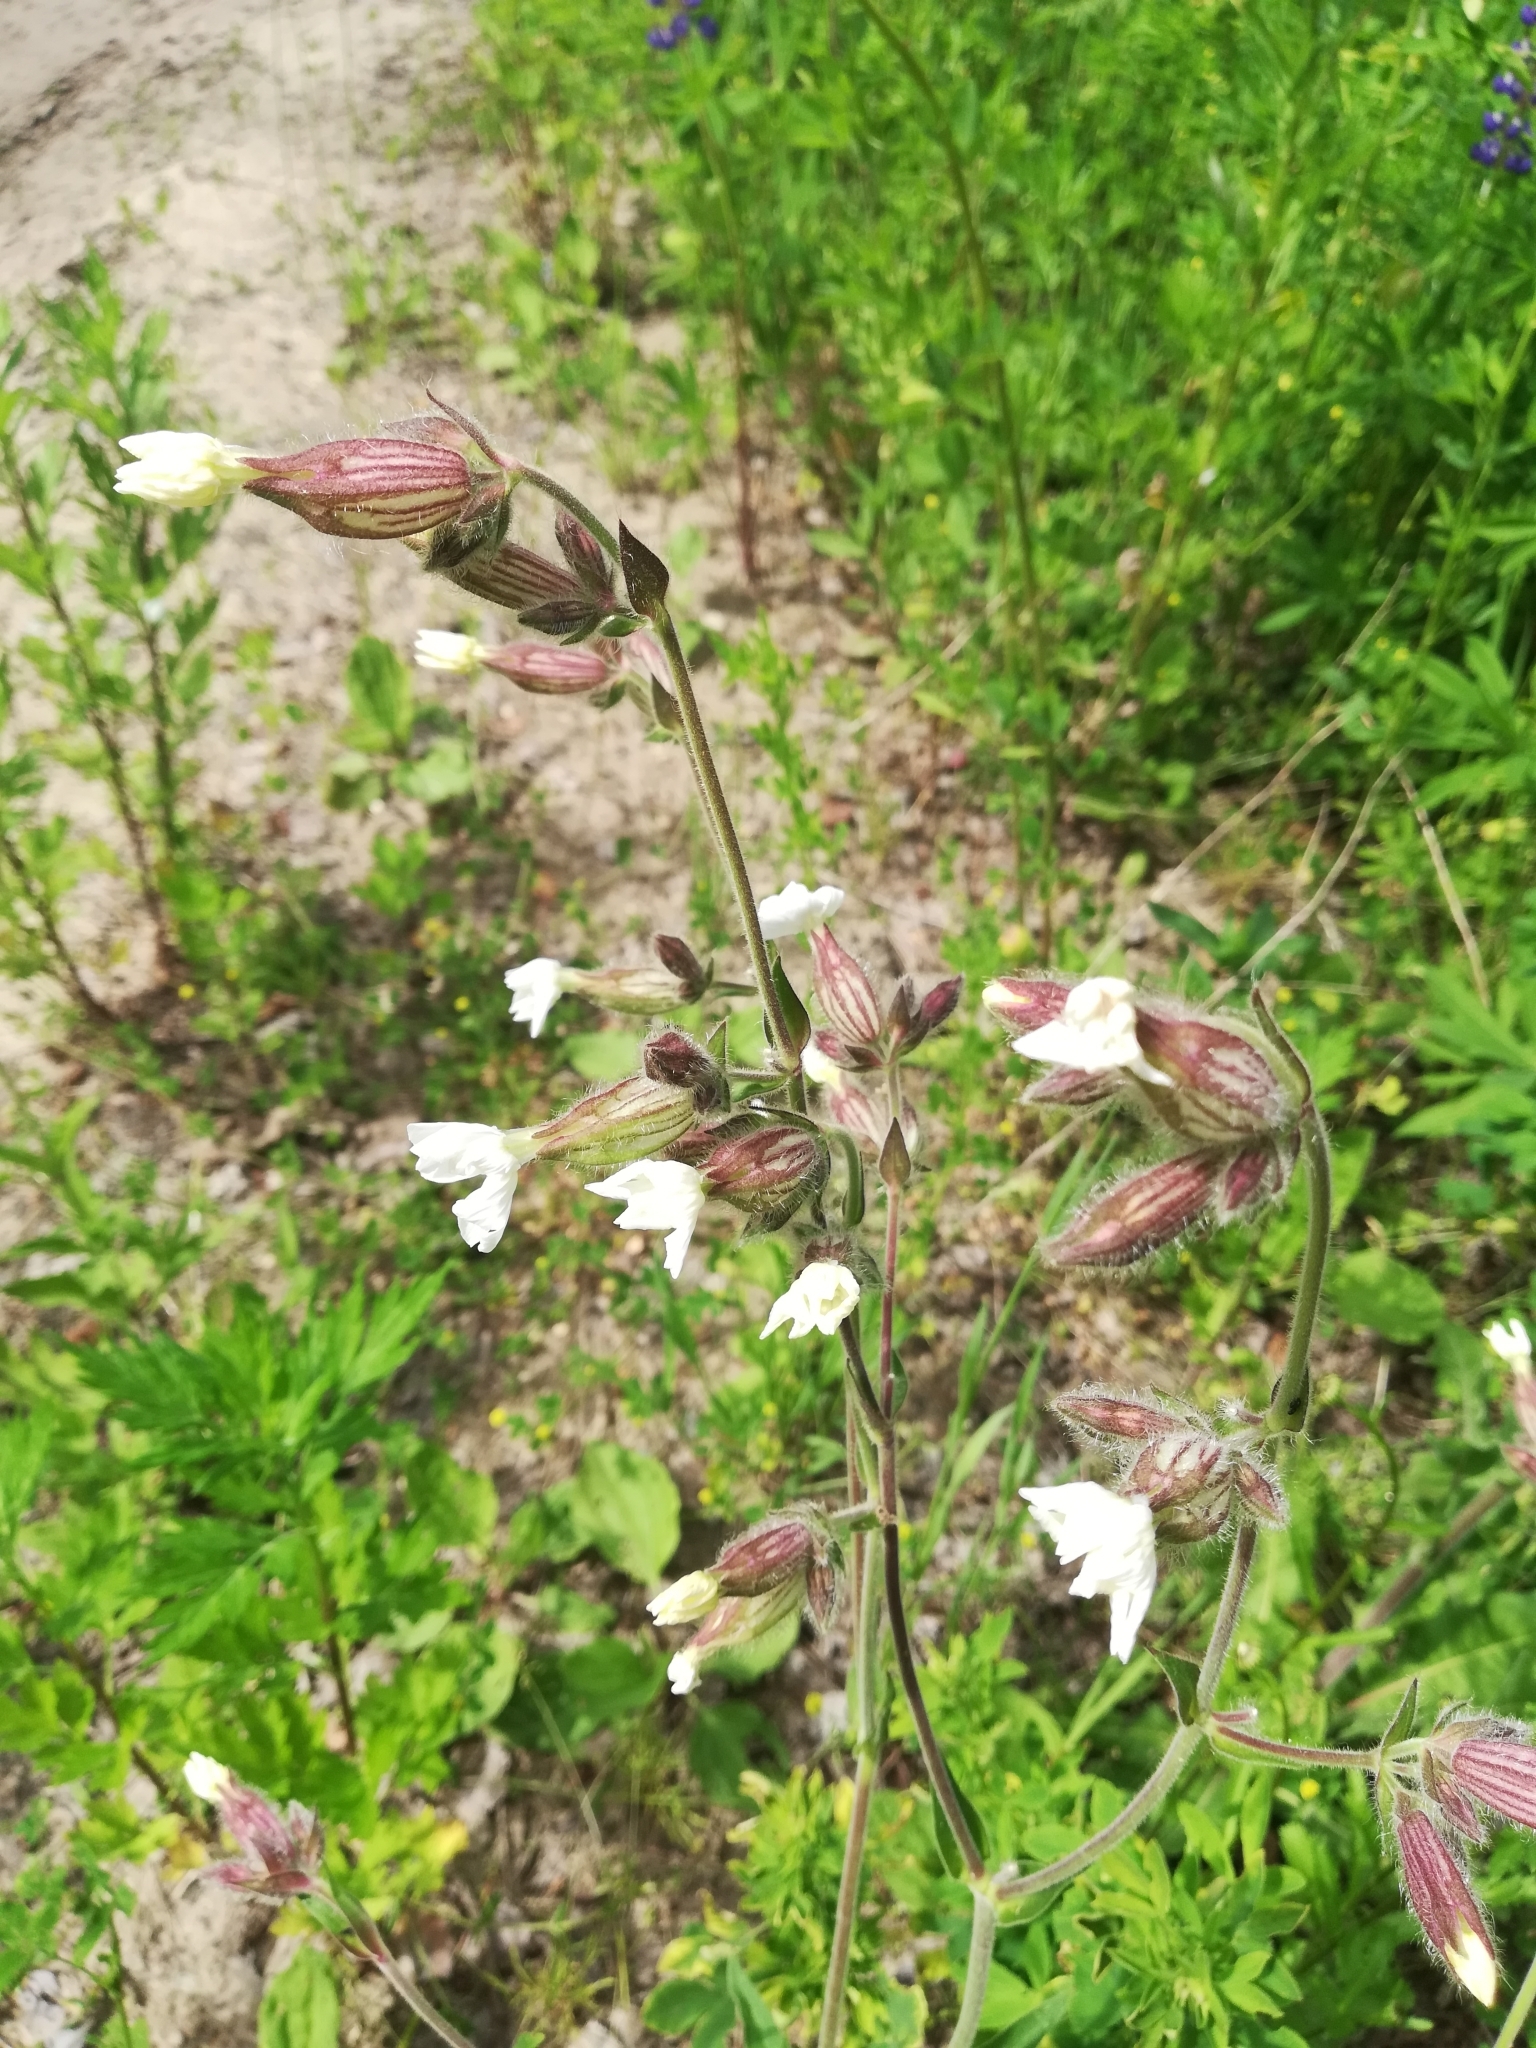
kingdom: Plantae
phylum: Tracheophyta
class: Magnoliopsida
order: Caryophyllales
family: Caryophyllaceae
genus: Silene
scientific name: Silene latifolia
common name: White campion
